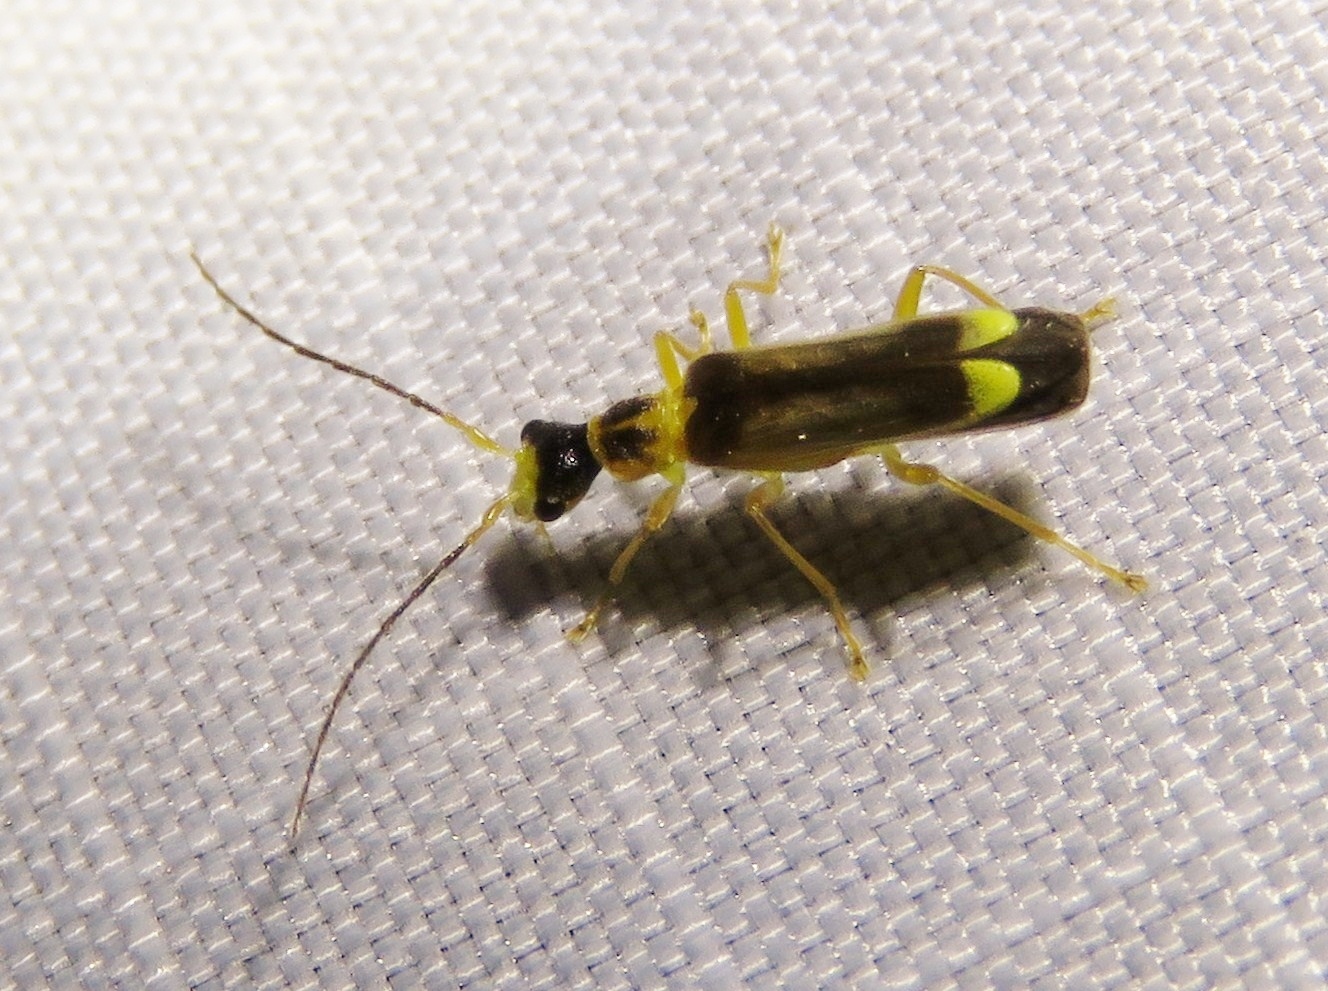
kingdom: Animalia
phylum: Arthropoda
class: Insecta
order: Coleoptera
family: Cantharidae
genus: Malthinus
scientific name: Malthinus flaveolus
